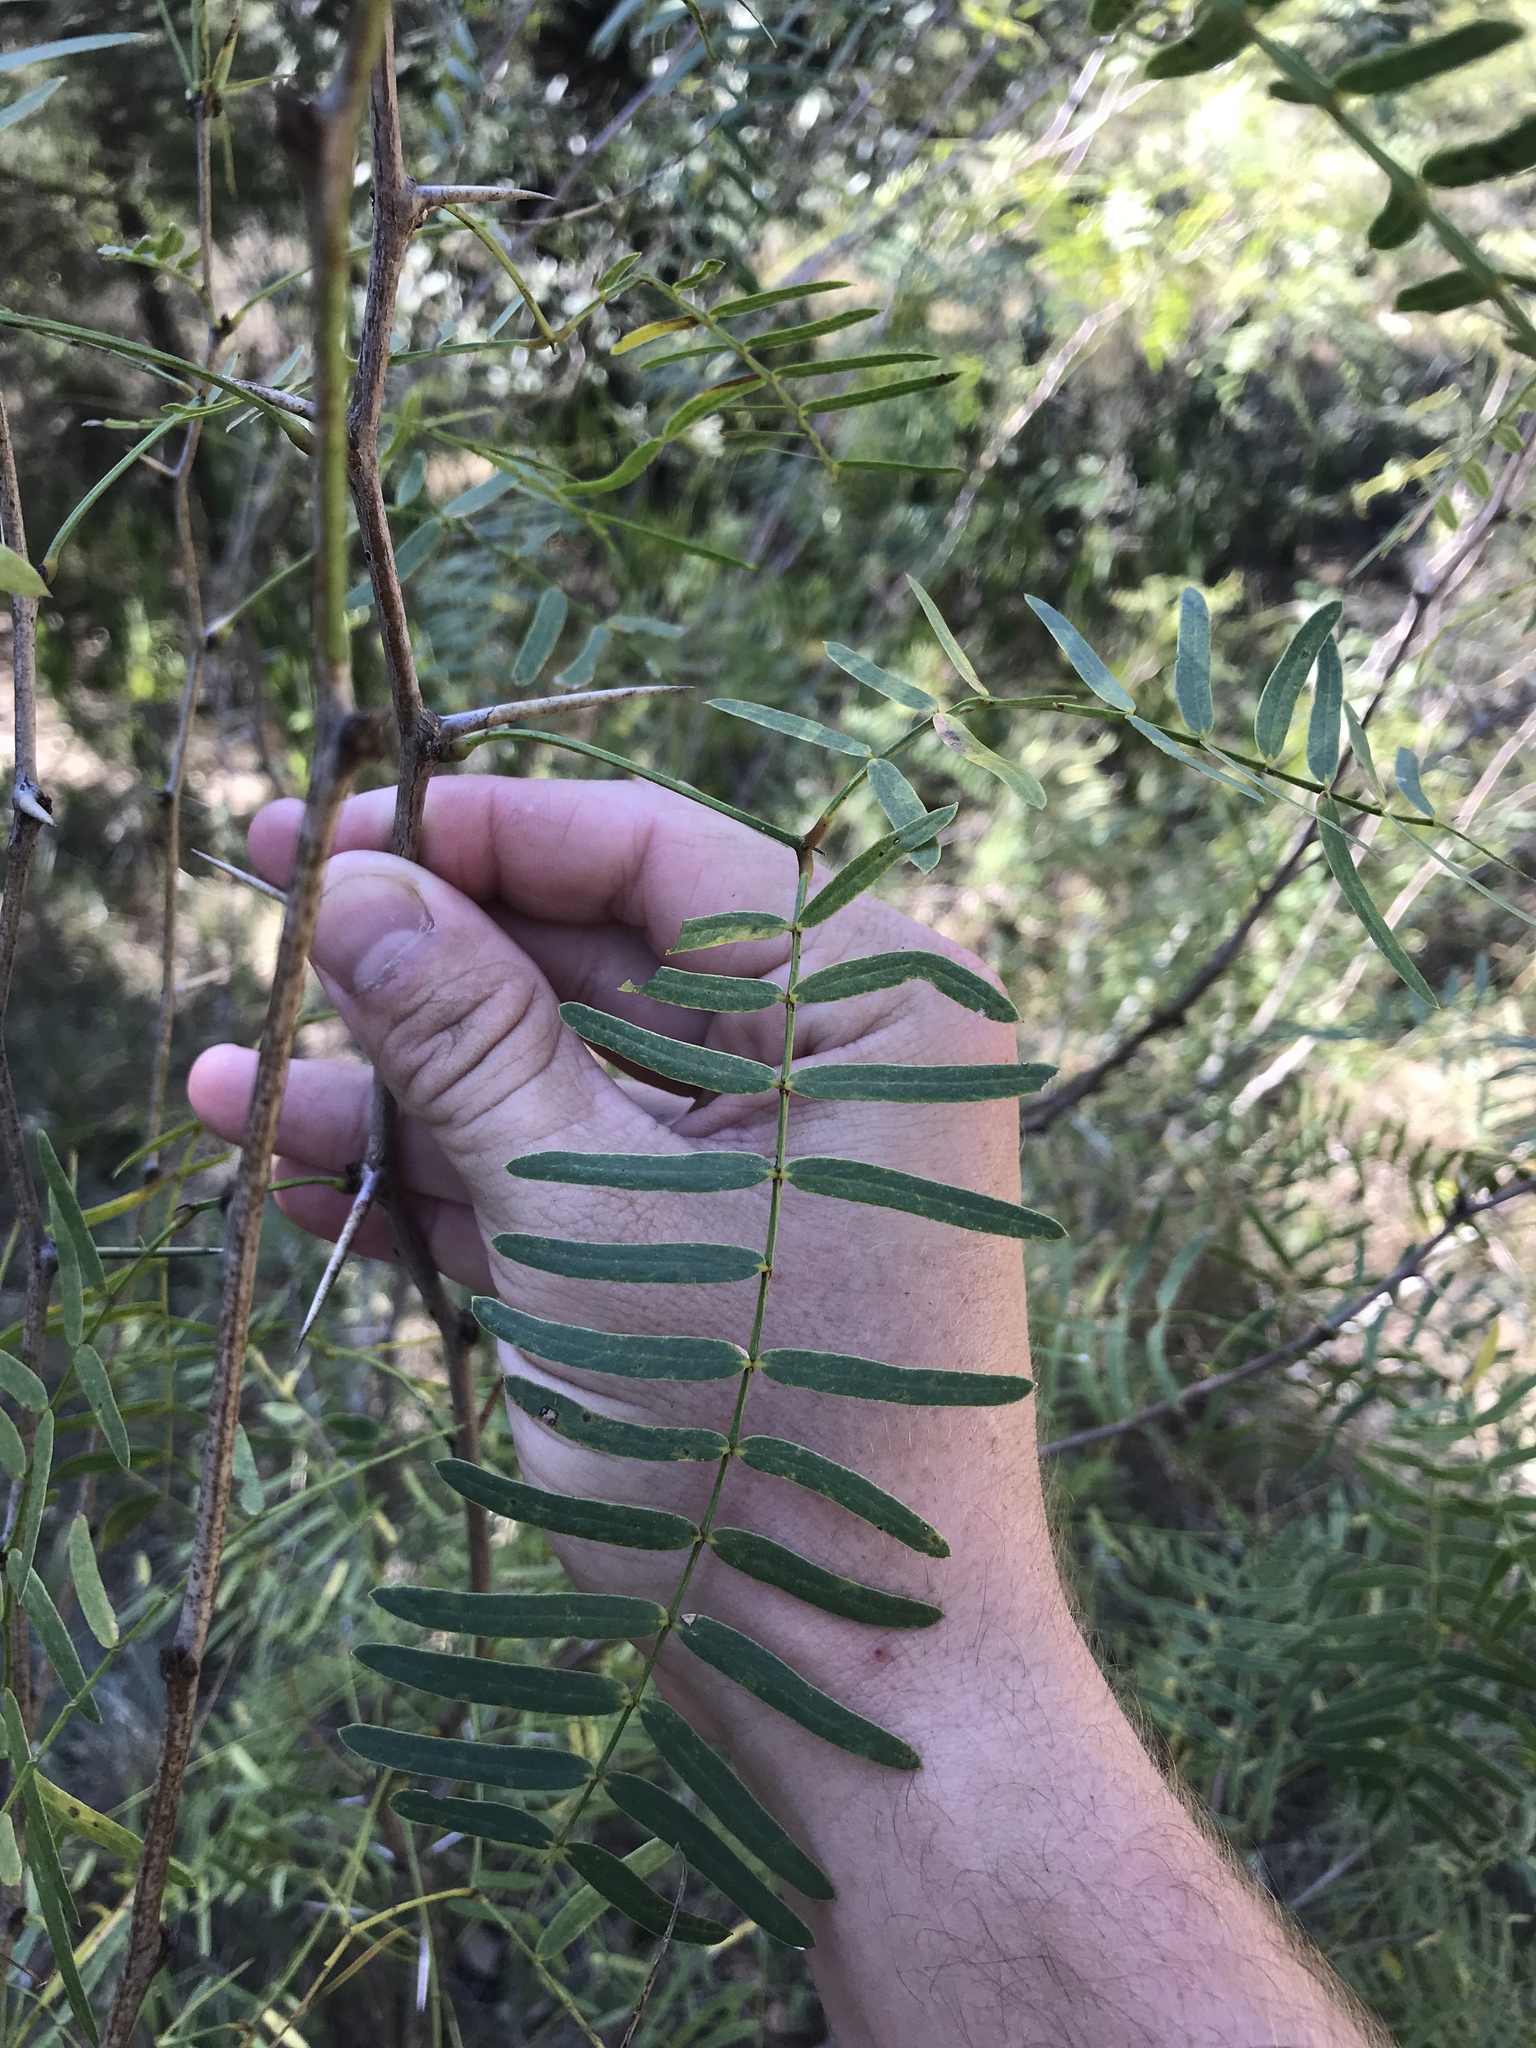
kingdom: Plantae
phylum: Tracheophyta
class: Magnoliopsida
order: Fabales
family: Fabaceae
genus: Prosopis
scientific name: Prosopis glandulosa
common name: Honey mesquite
